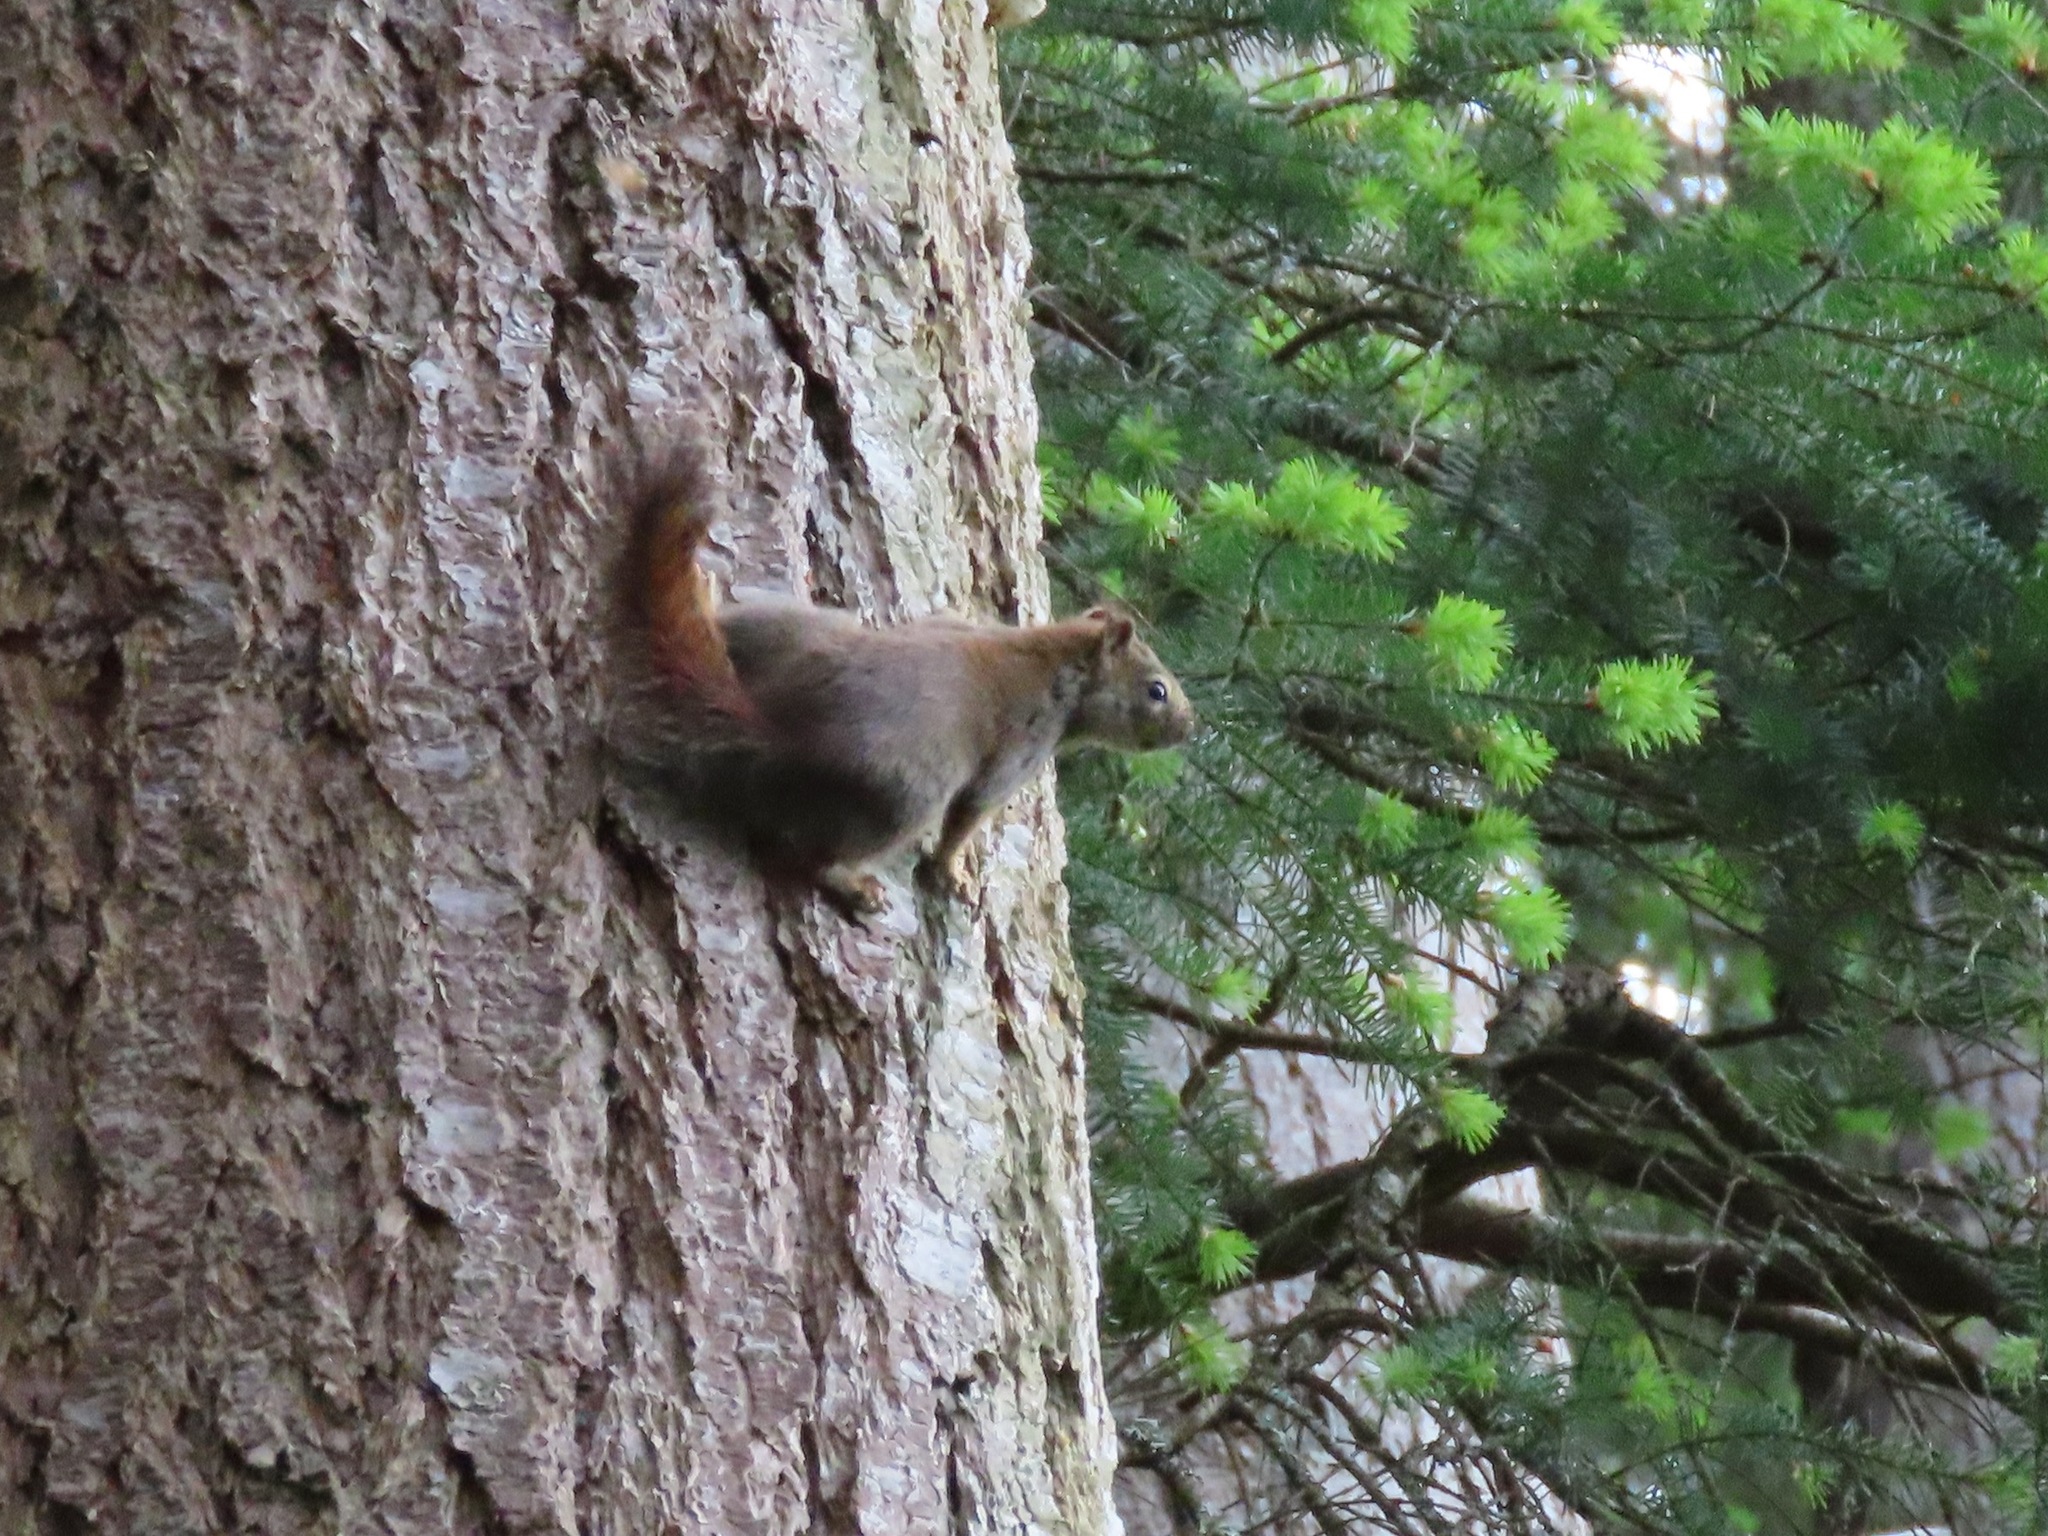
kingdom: Animalia
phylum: Chordata
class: Mammalia
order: Rodentia
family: Sciuridae
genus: Tamiasciurus
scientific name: Tamiasciurus hudsonicus
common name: Red squirrel
